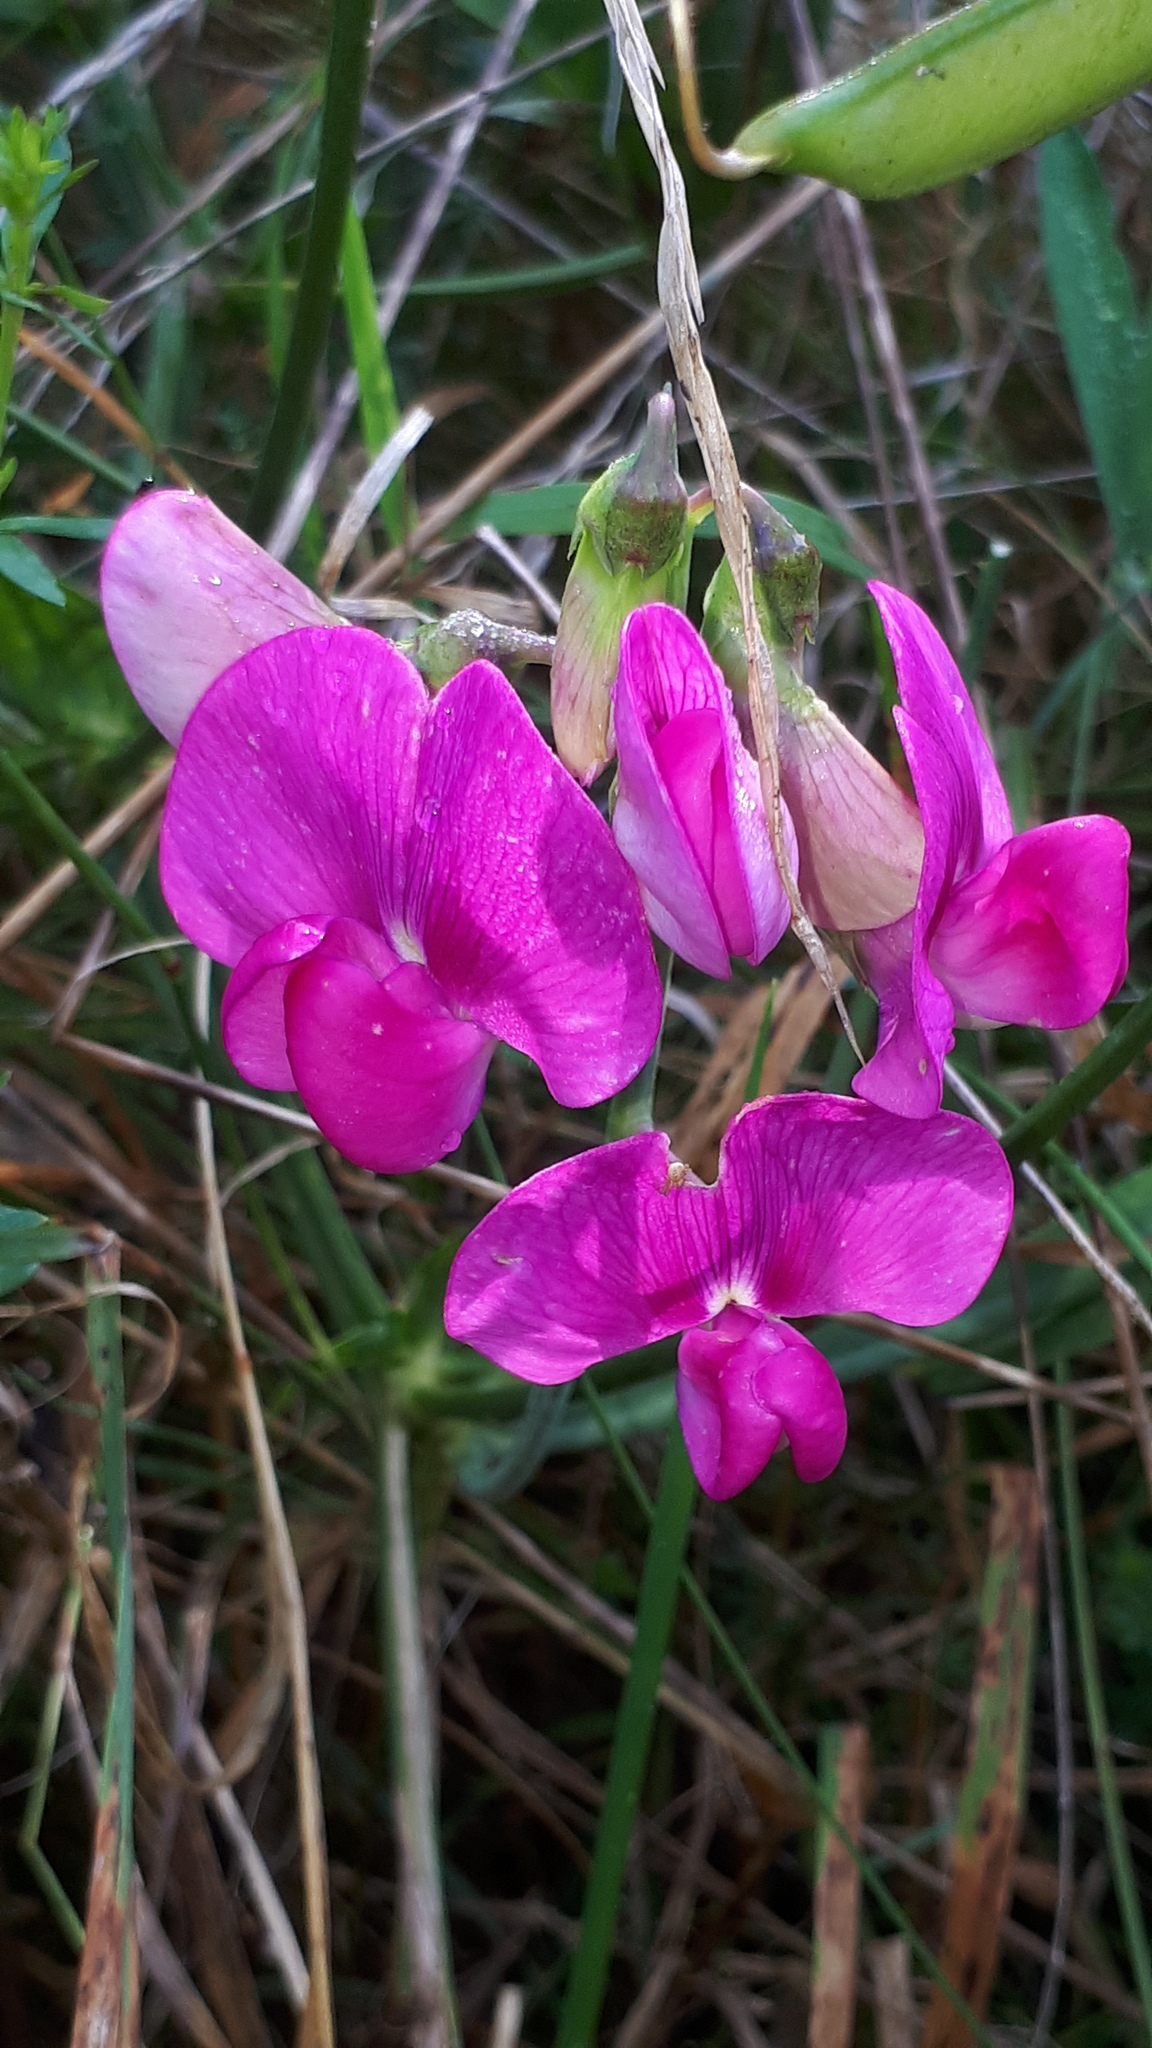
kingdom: Plantae
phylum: Tracheophyta
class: Magnoliopsida
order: Fabales
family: Fabaceae
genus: Lathyrus
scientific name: Lathyrus latifolius
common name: Perennial pea
